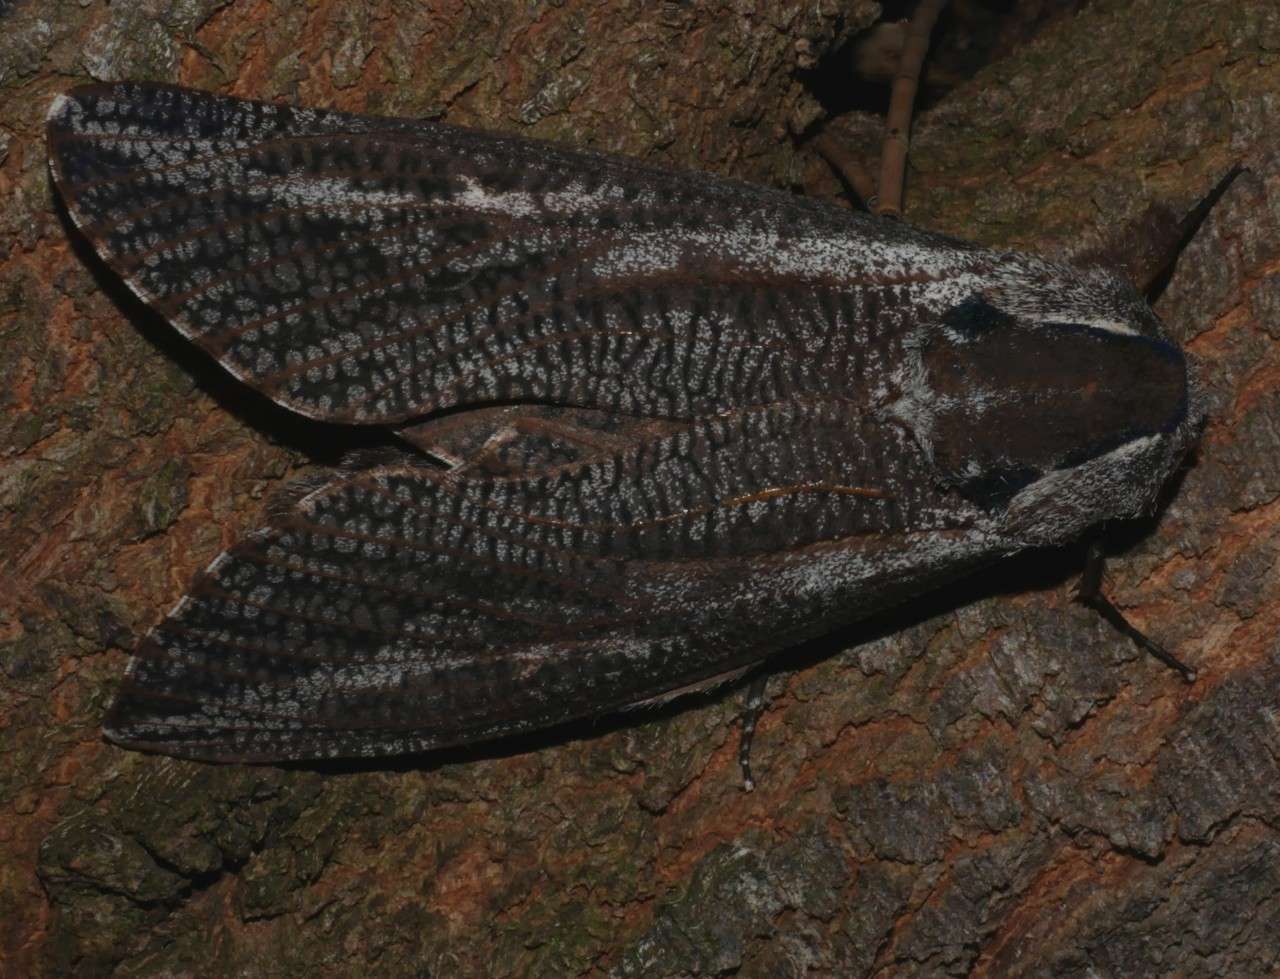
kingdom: Animalia
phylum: Arthropoda
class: Insecta
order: Lepidoptera
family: Cossidae
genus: Endoxyla
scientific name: Endoxyla encalypti
